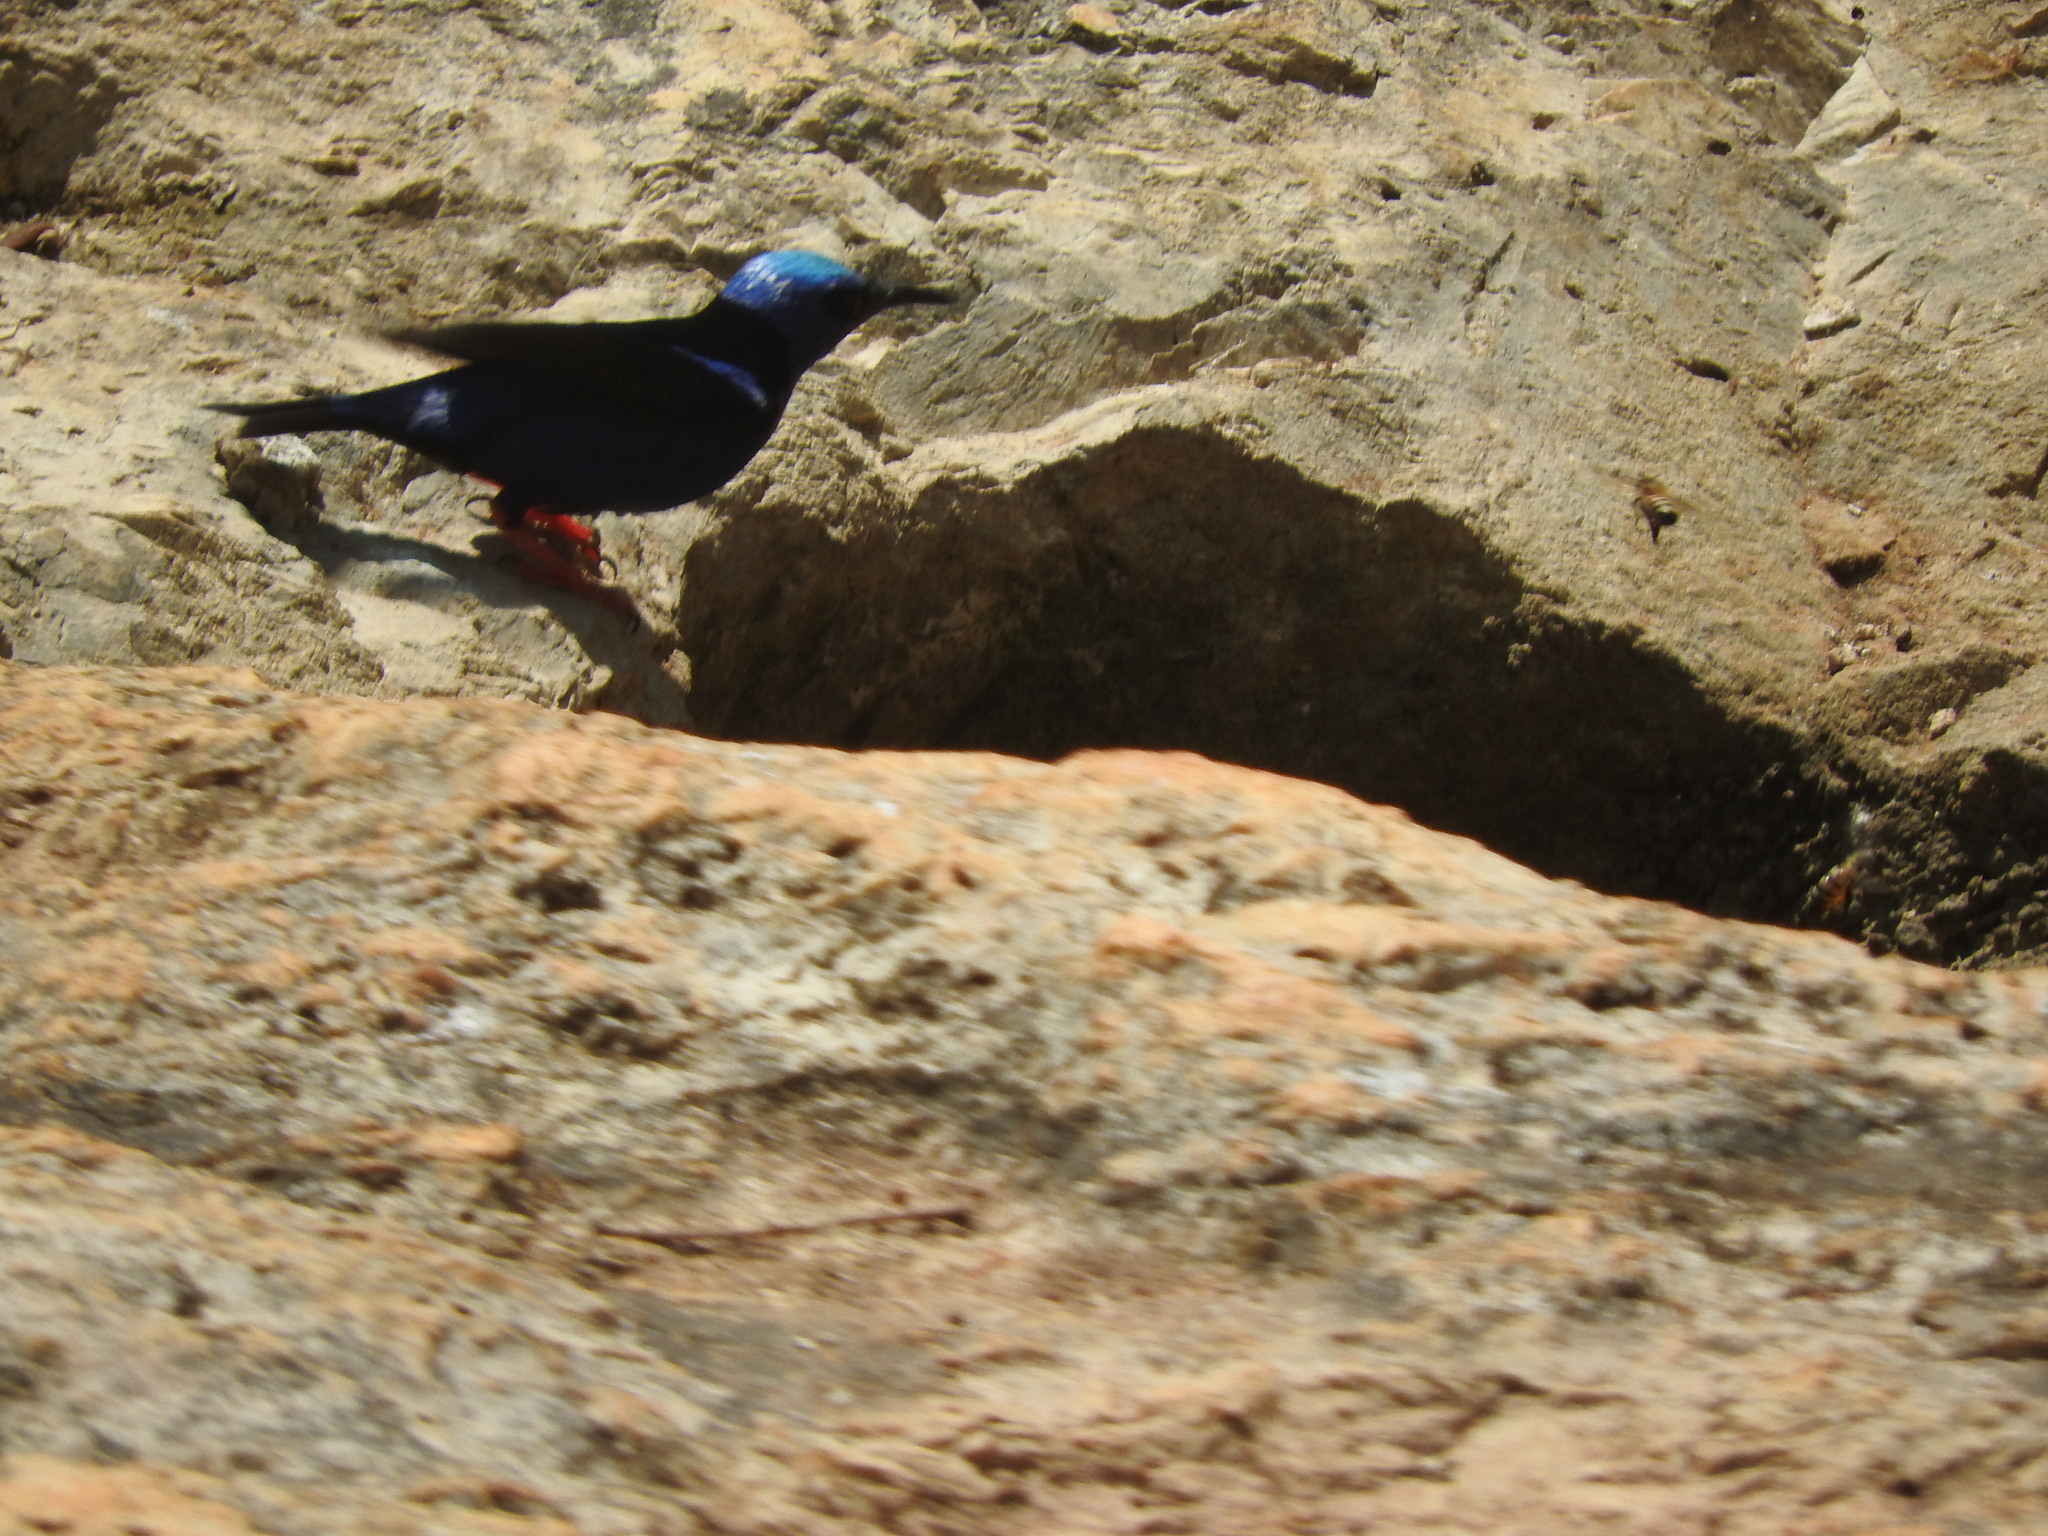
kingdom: Animalia
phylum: Chordata
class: Aves
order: Passeriformes
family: Thraupidae
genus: Cyanerpes
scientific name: Cyanerpes cyaneus
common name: Red-legged honeycreeper
